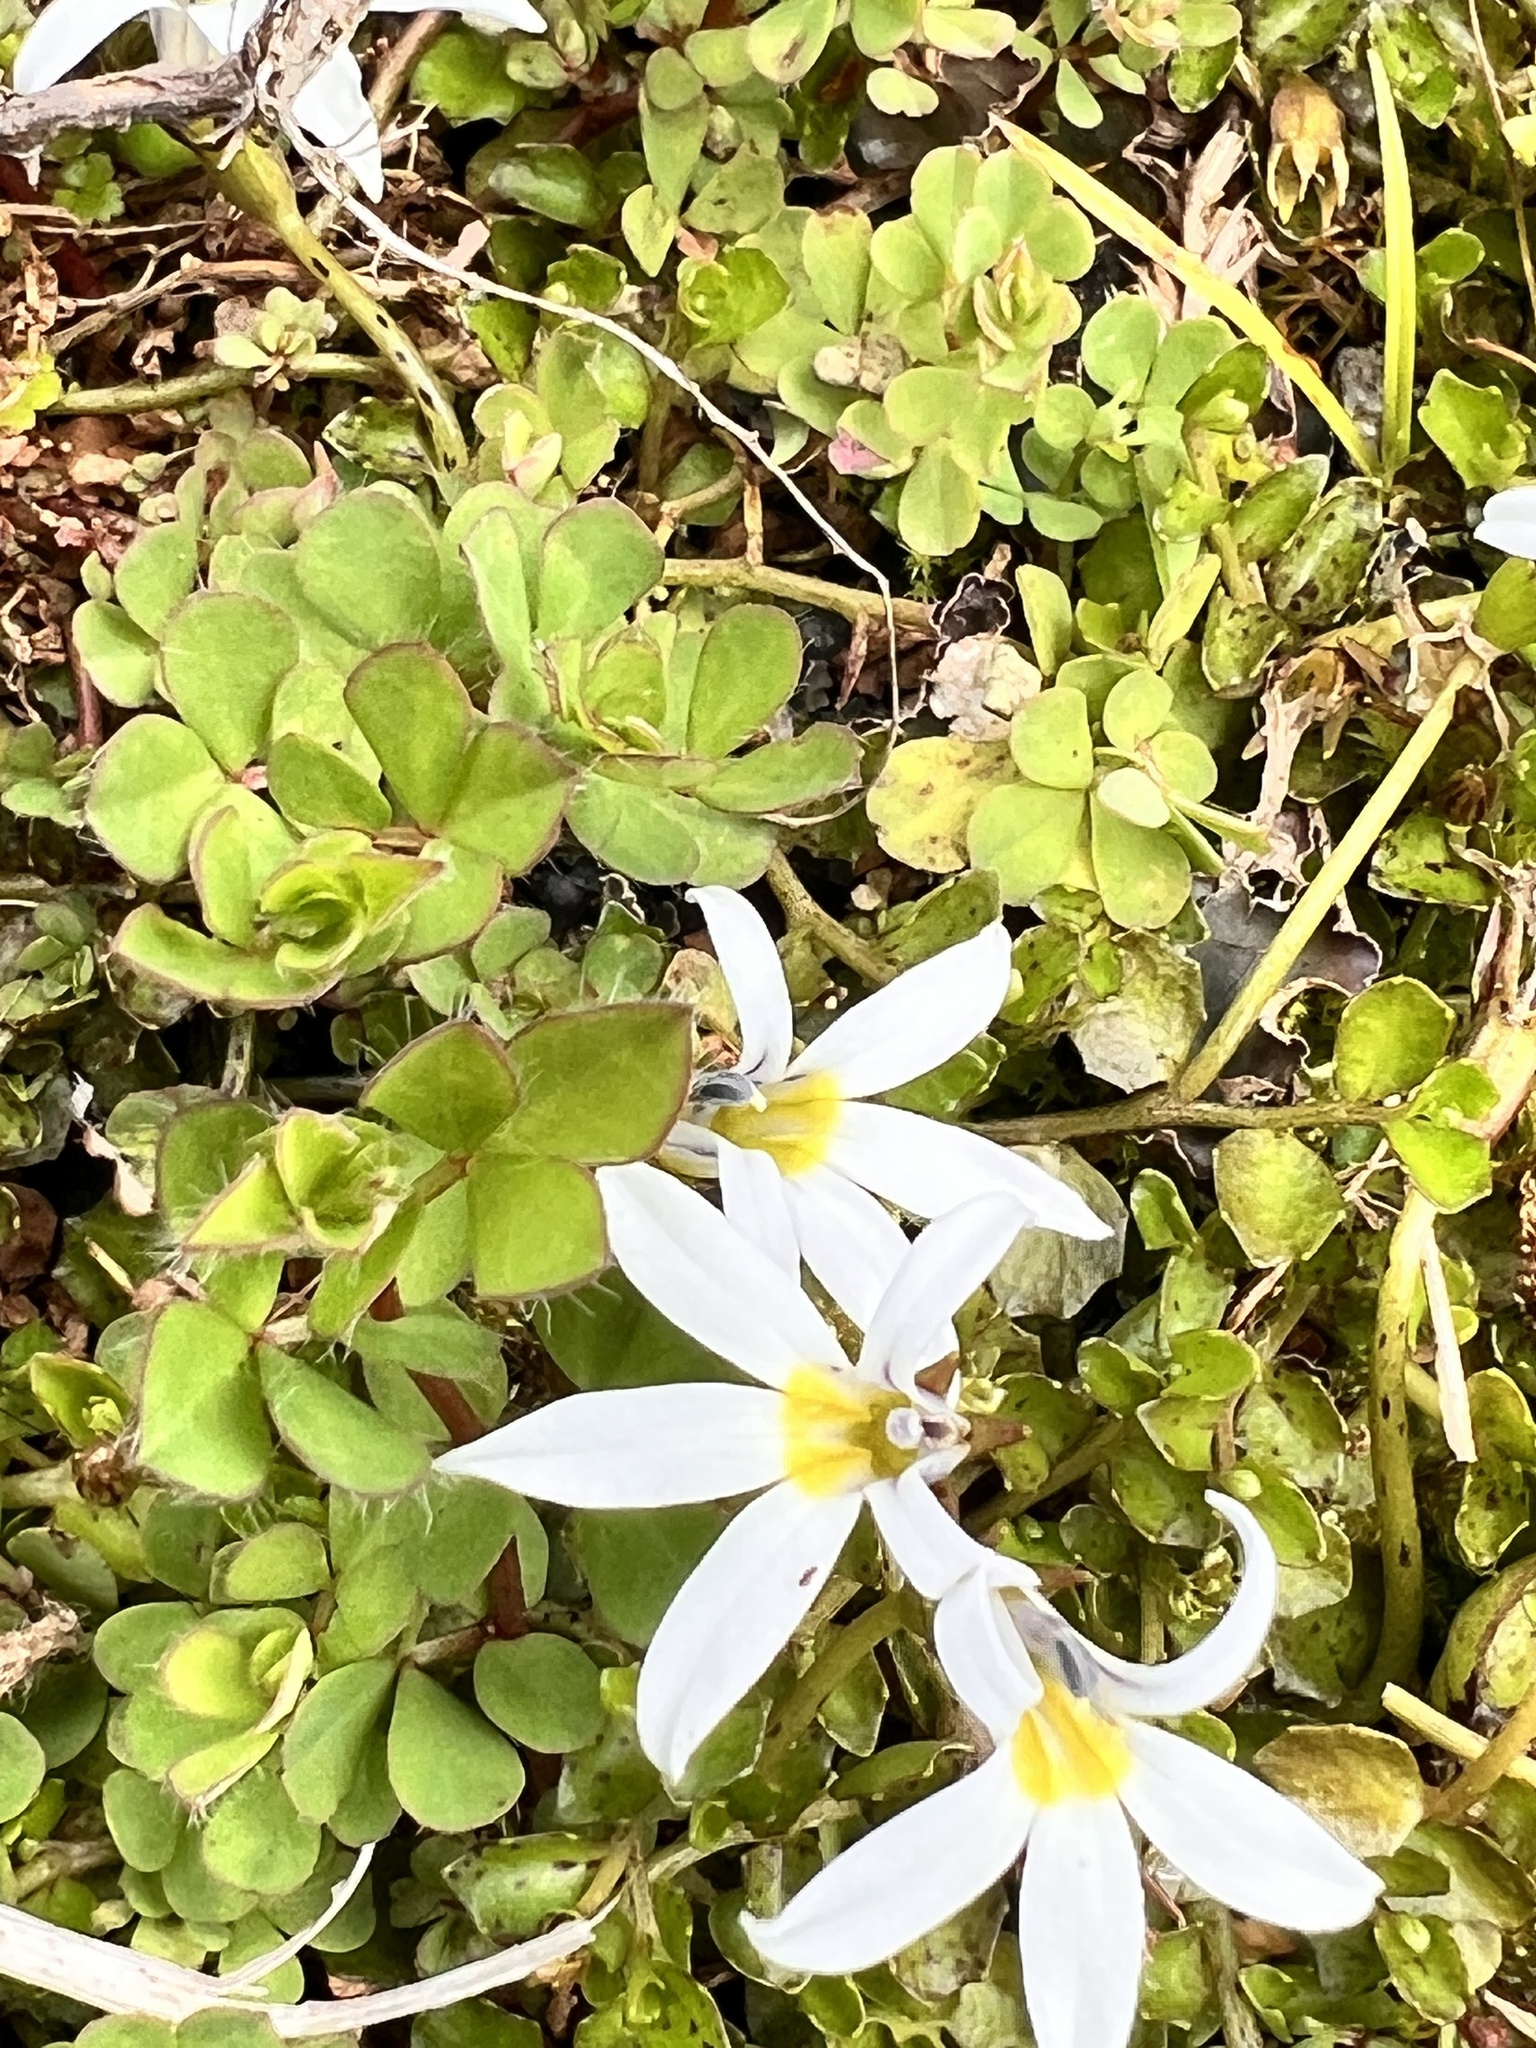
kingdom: Plantae
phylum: Tracheophyta
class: Magnoliopsida
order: Asterales
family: Campanulaceae
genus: Lobelia
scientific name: Lobelia angulata
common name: Lawn lobelia
